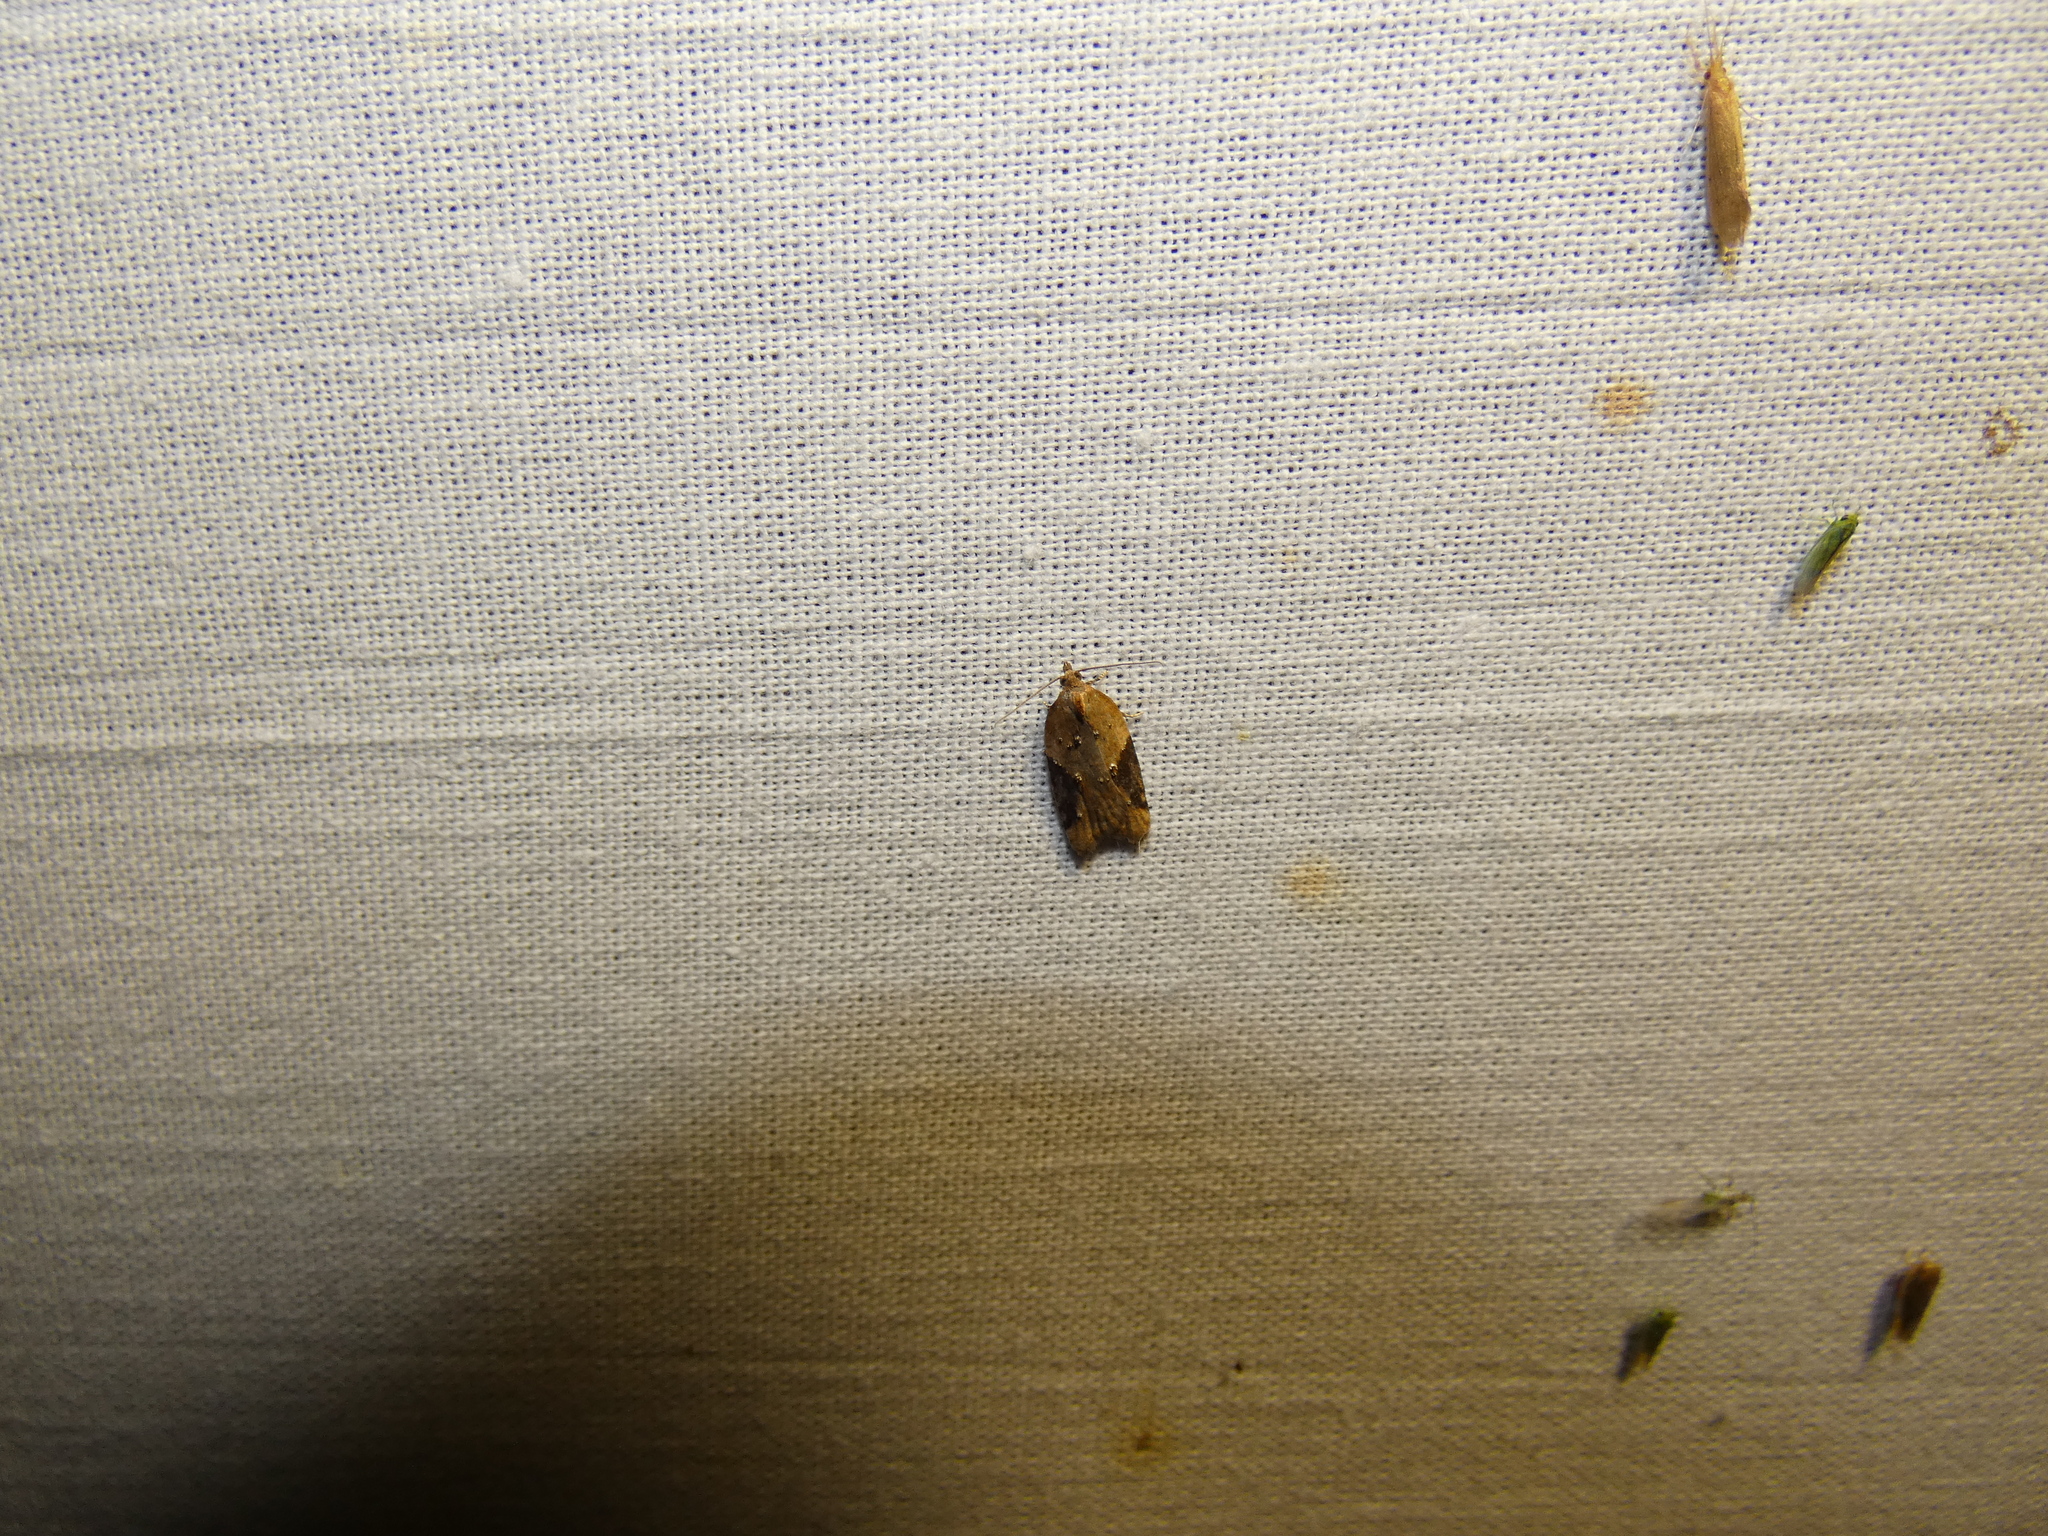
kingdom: Animalia
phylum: Arthropoda
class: Insecta
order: Lepidoptera
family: Tortricidae
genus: Acleris
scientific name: Acleris laterana
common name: Dark-triangle button
